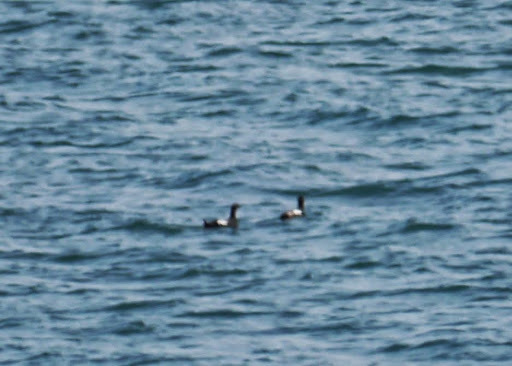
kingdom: Animalia
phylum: Chordata
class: Aves
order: Charadriiformes
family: Alcidae
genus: Cepphus
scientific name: Cepphus columba
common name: Pigeon guillemot
